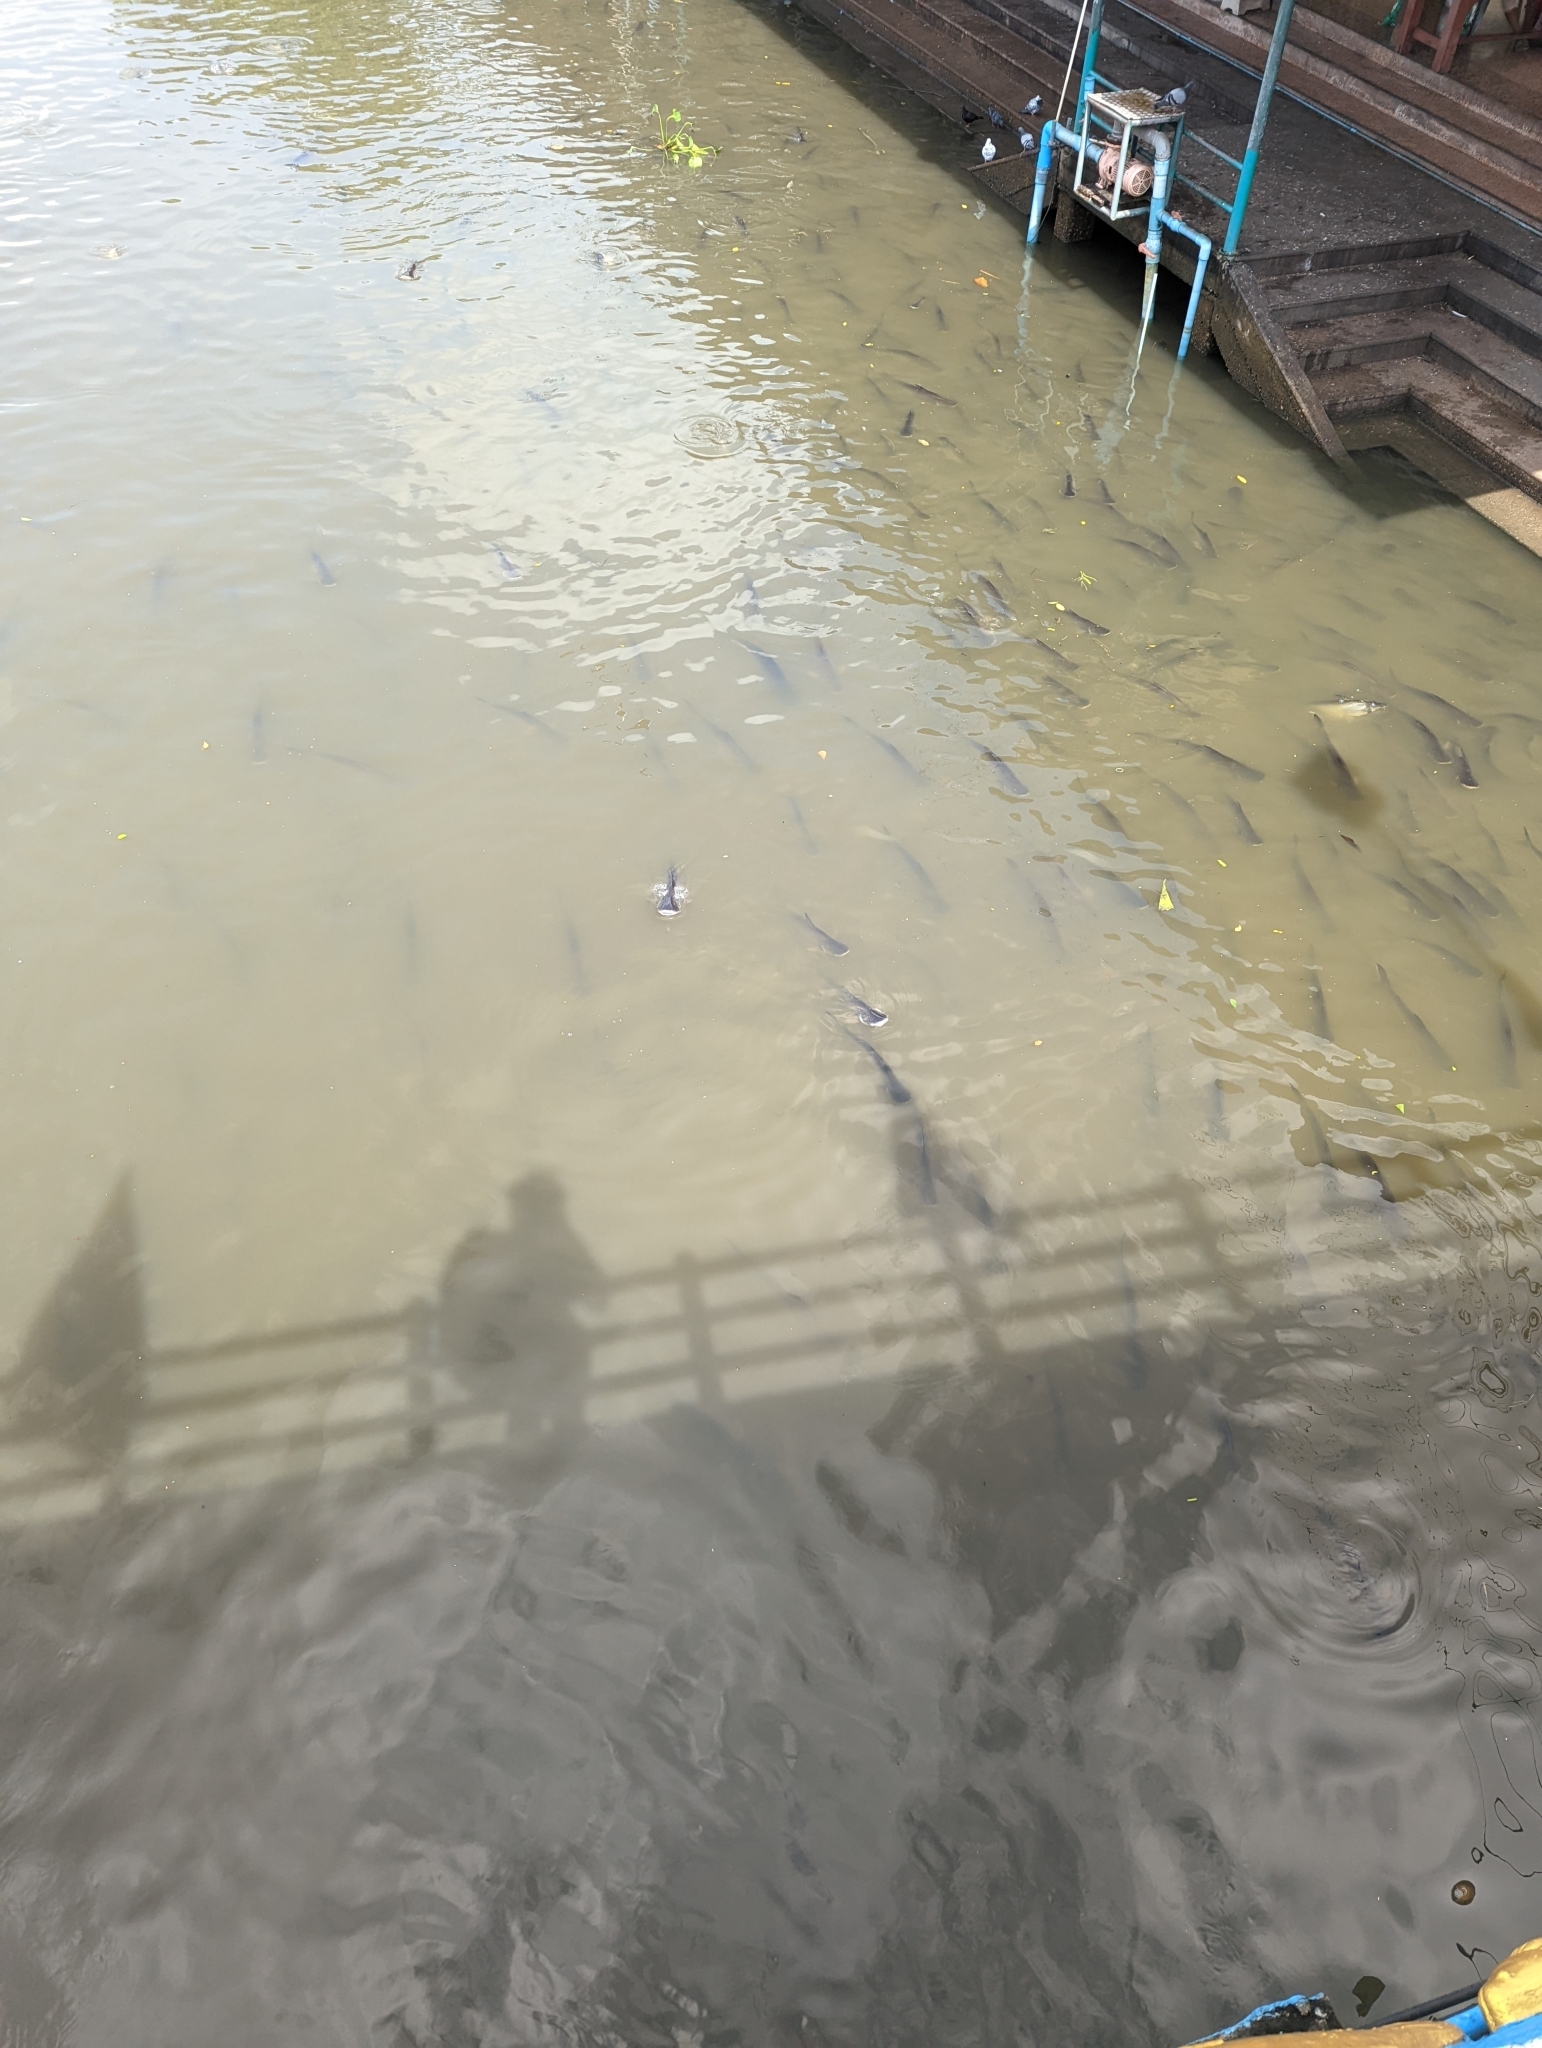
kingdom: Animalia
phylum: Chordata
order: Siluriformes
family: Pangasiidae
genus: Pangasianodon
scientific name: Pangasianodon hypophthalmus
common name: Striped catfish
